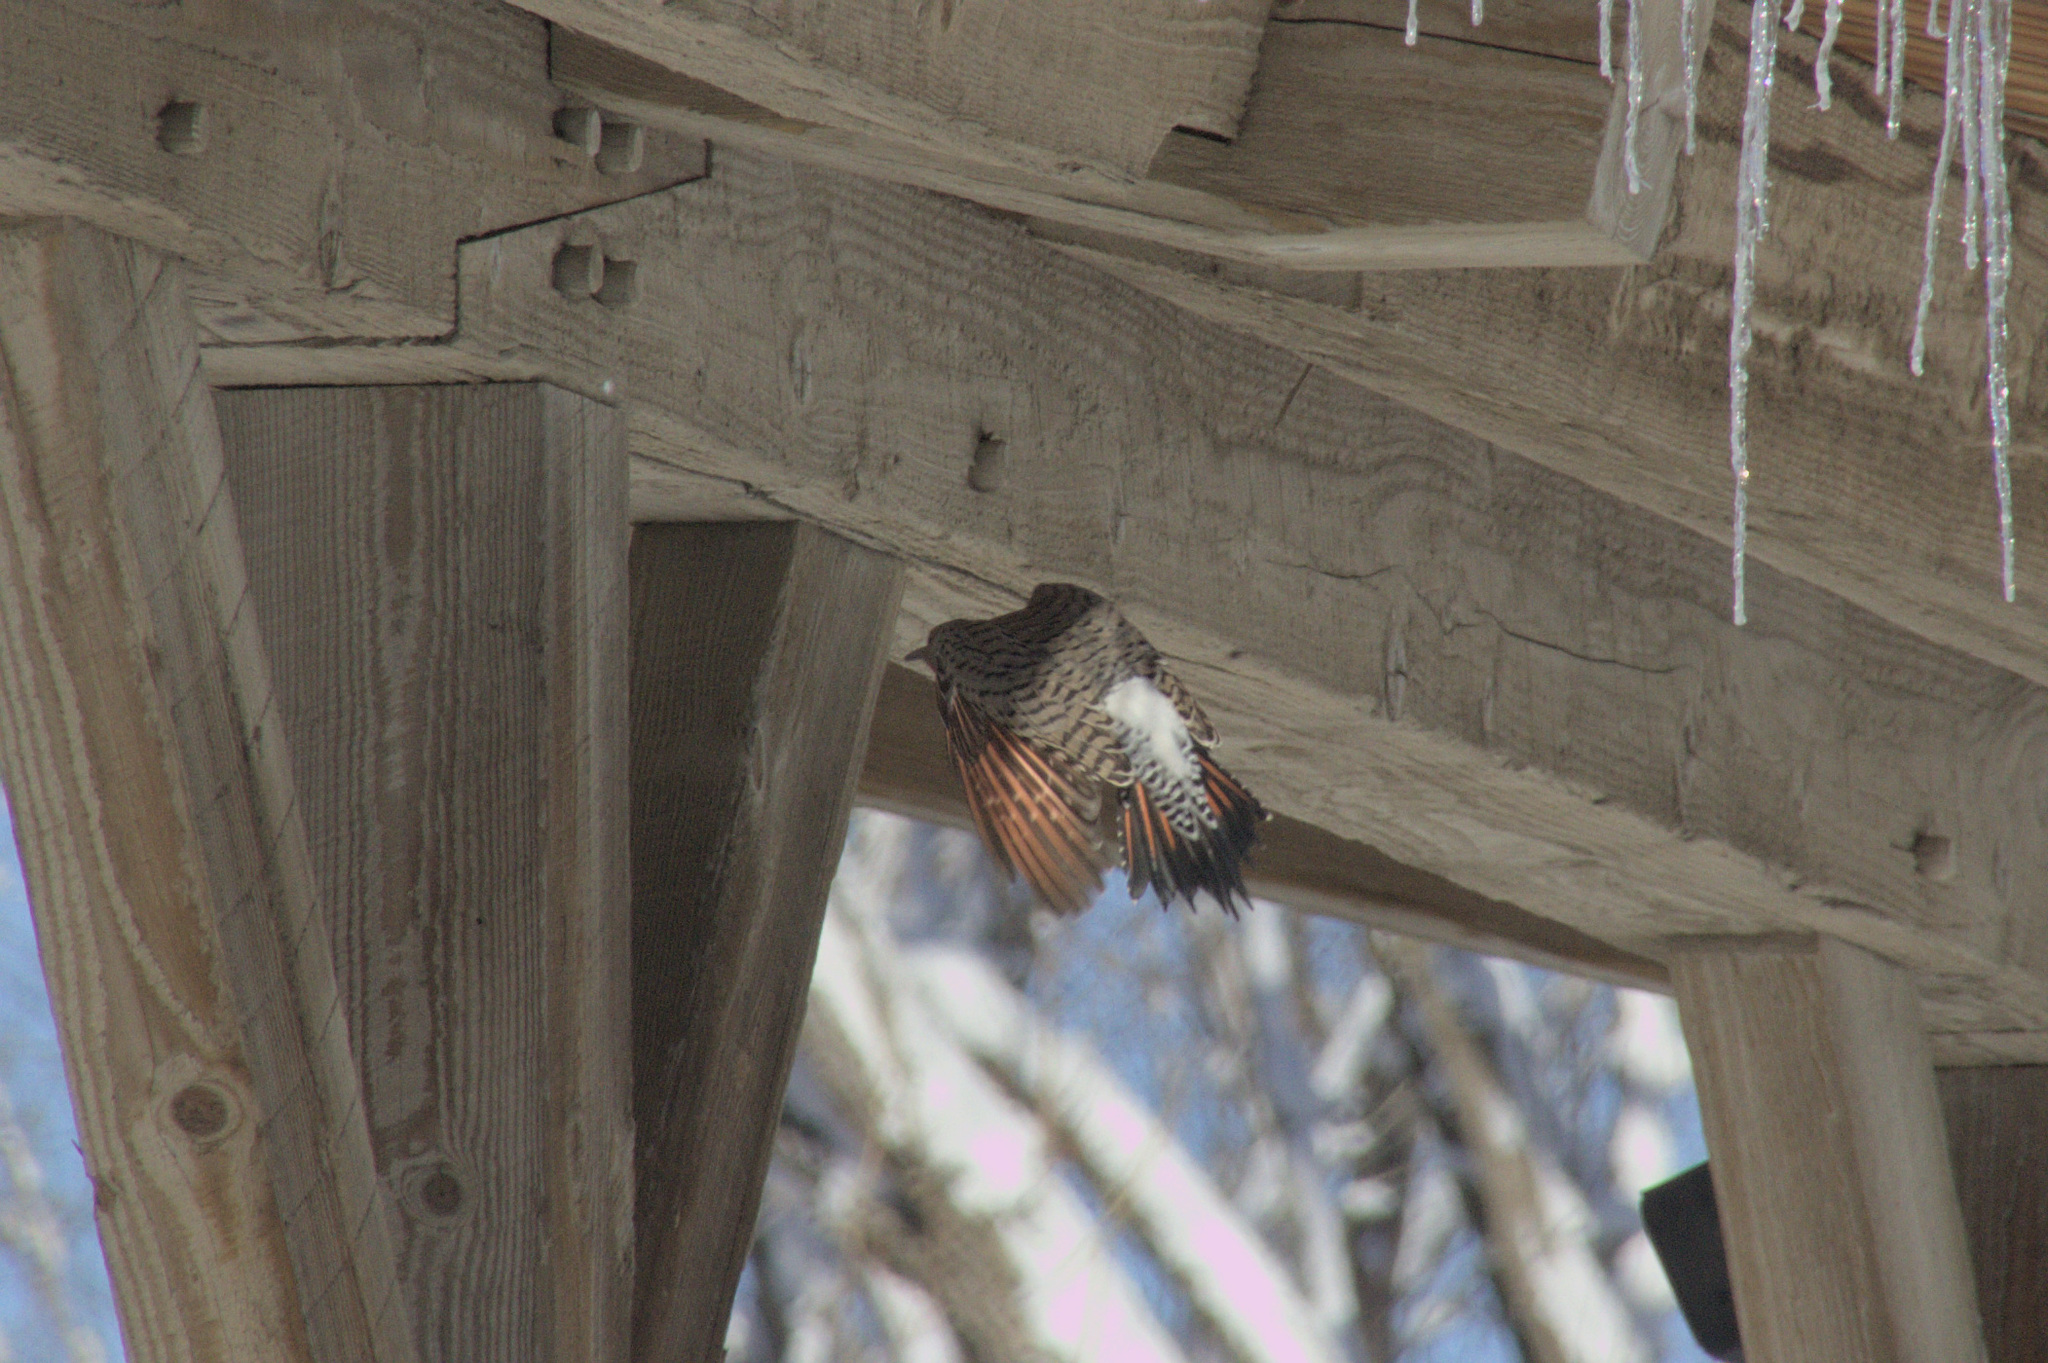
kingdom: Animalia
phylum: Chordata
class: Aves
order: Piciformes
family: Picidae
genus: Colaptes
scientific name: Colaptes auratus
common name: Northern flicker
